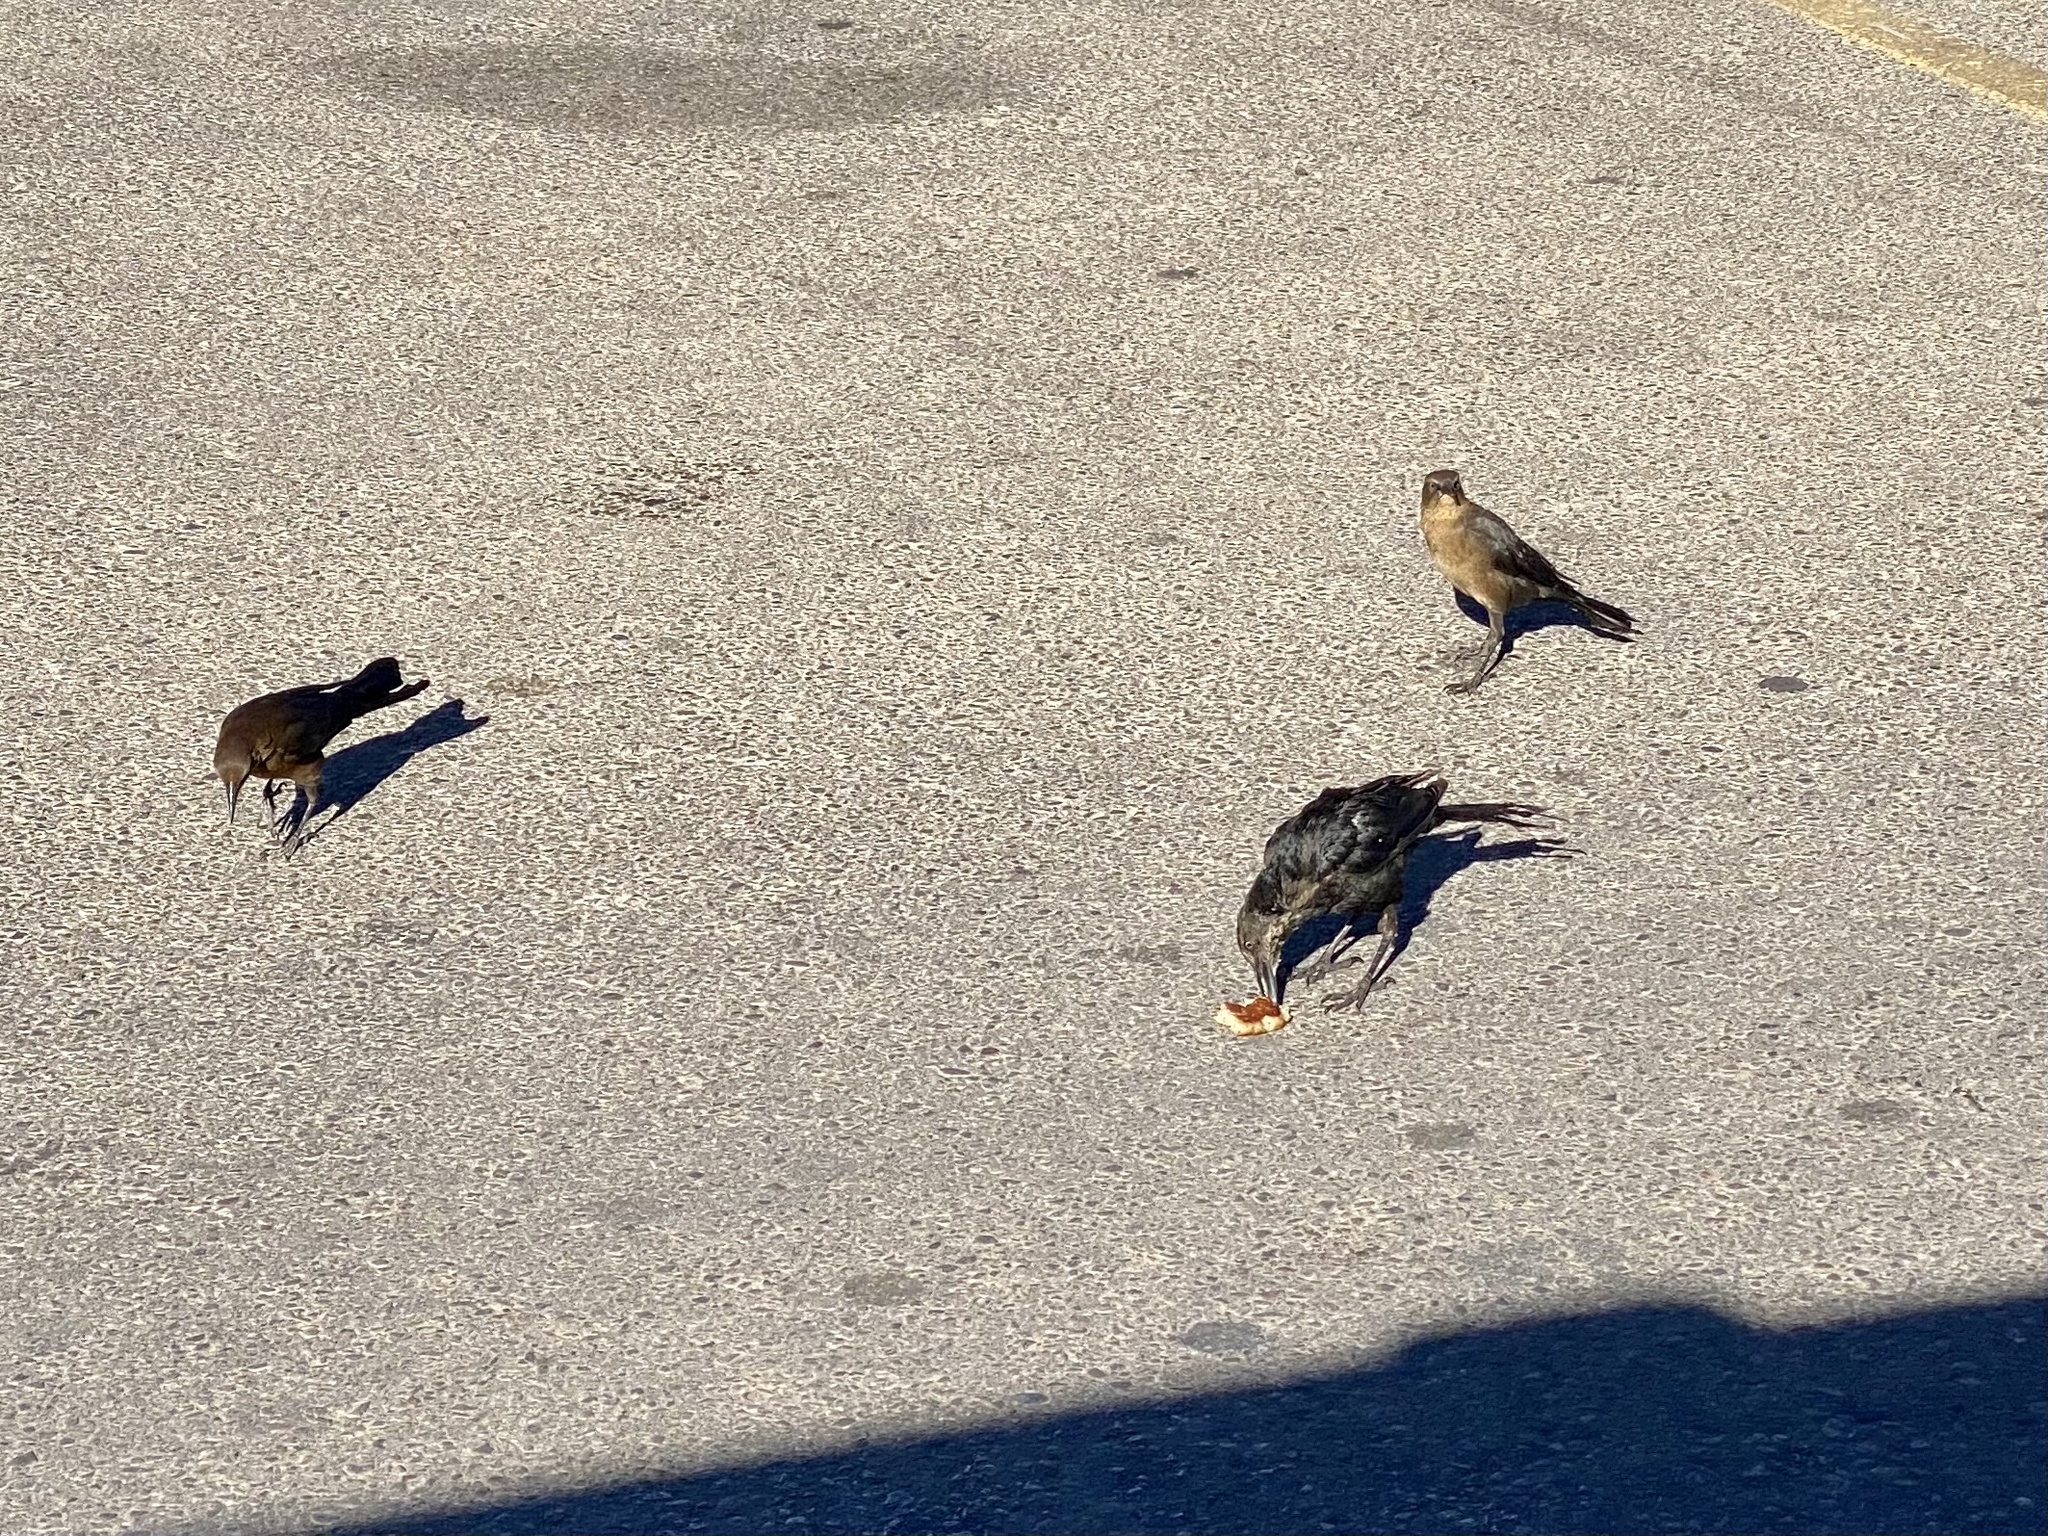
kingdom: Animalia
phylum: Chordata
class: Aves
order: Passeriformes
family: Icteridae
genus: Quiscalus
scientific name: Quiscalus mexicanus
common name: Great-tailed grackle
